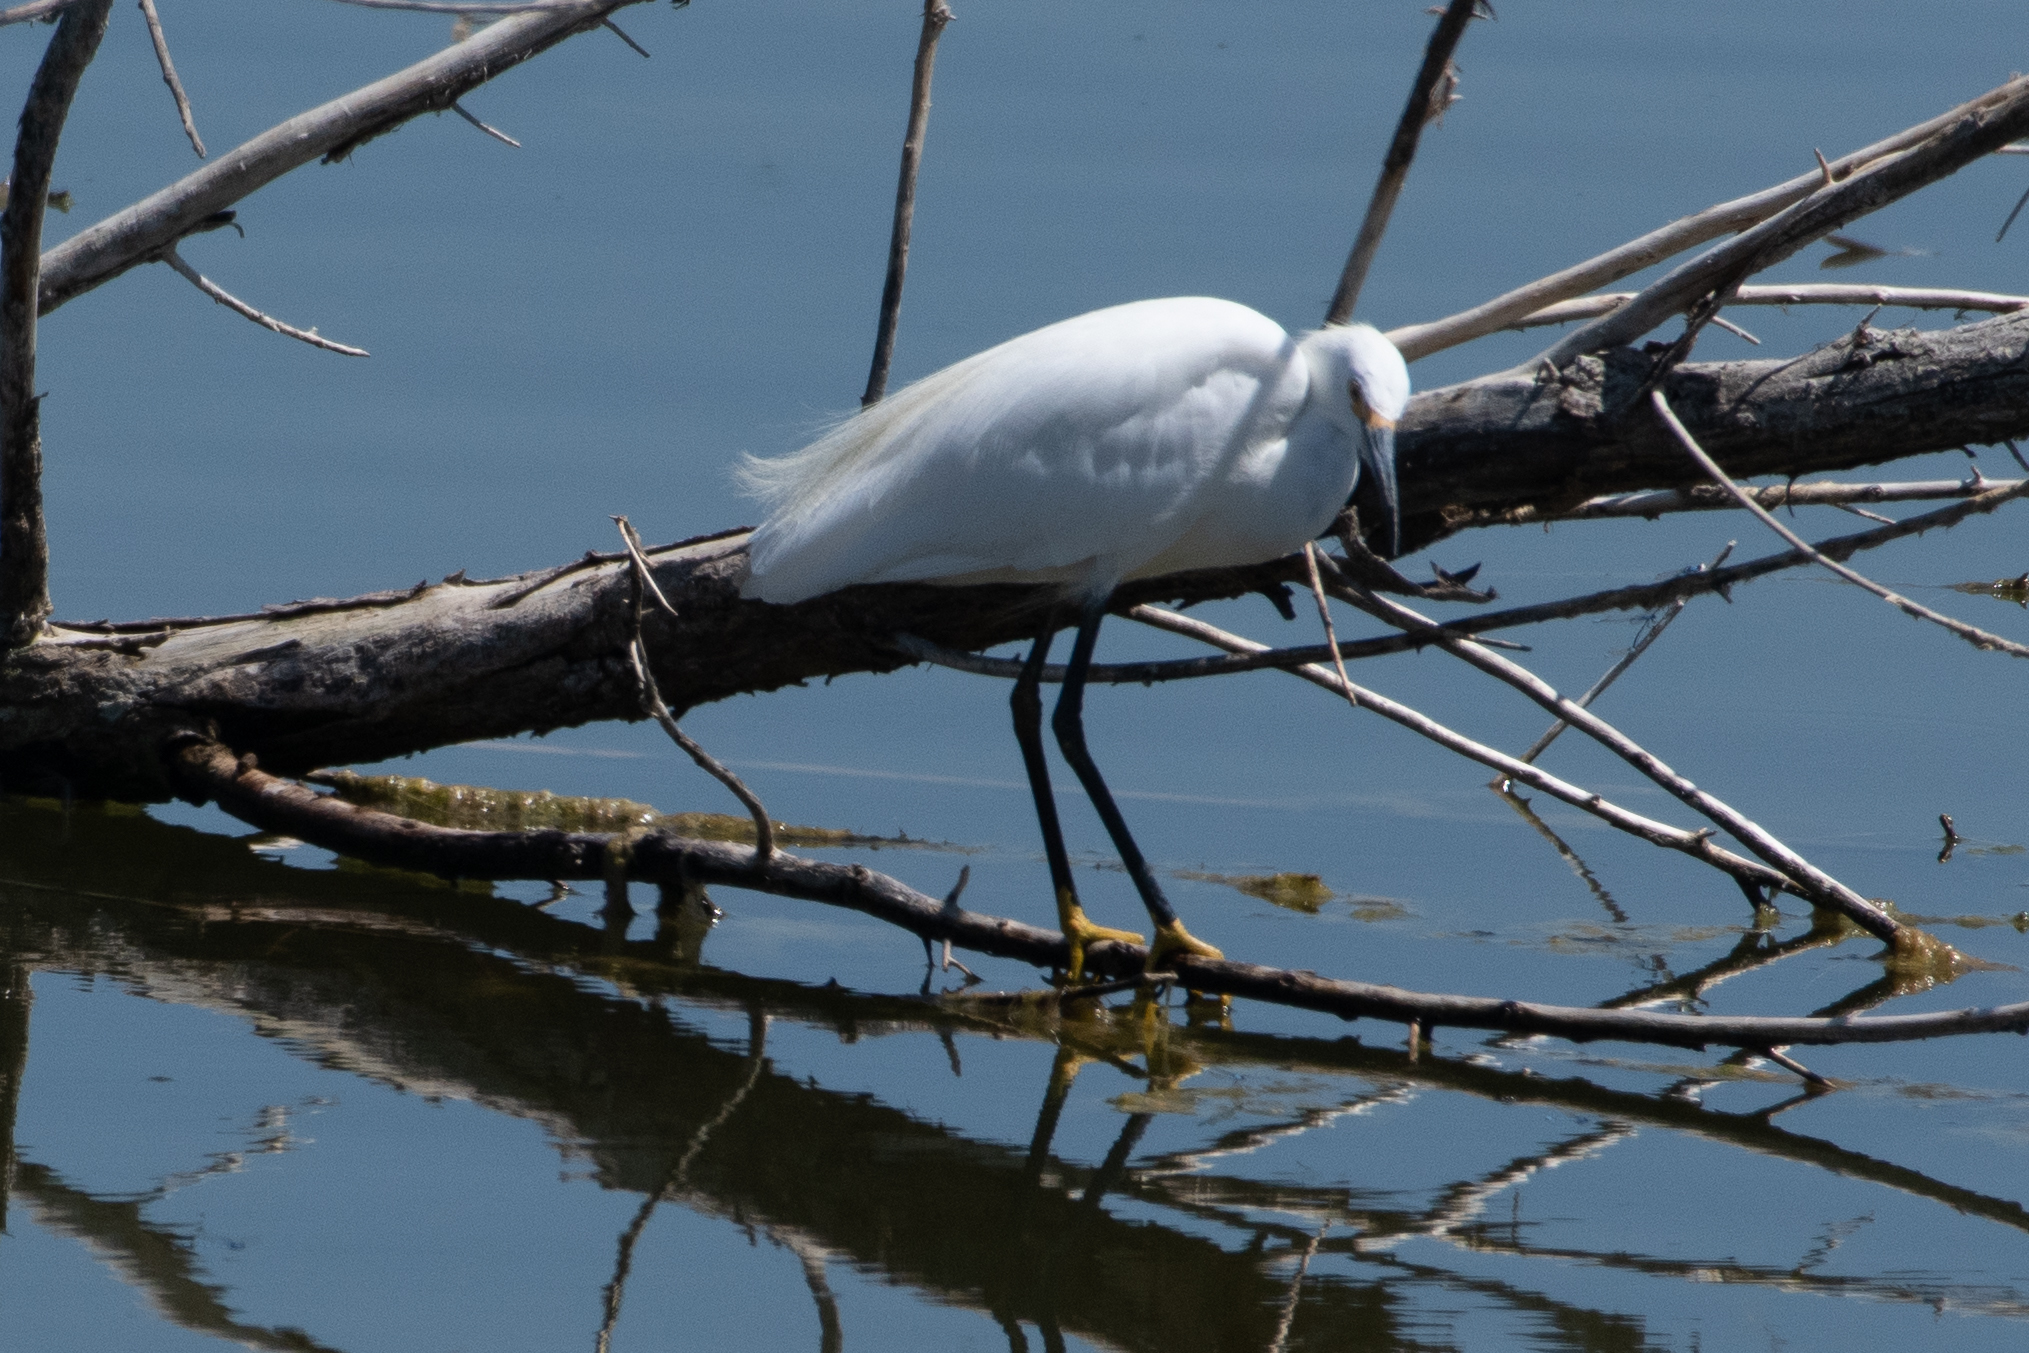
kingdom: Animalia
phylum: Chordata
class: Aves
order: Pelecaniformes
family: Ardeidae
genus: Egretta
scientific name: Egretta thula
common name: Snowy egret
